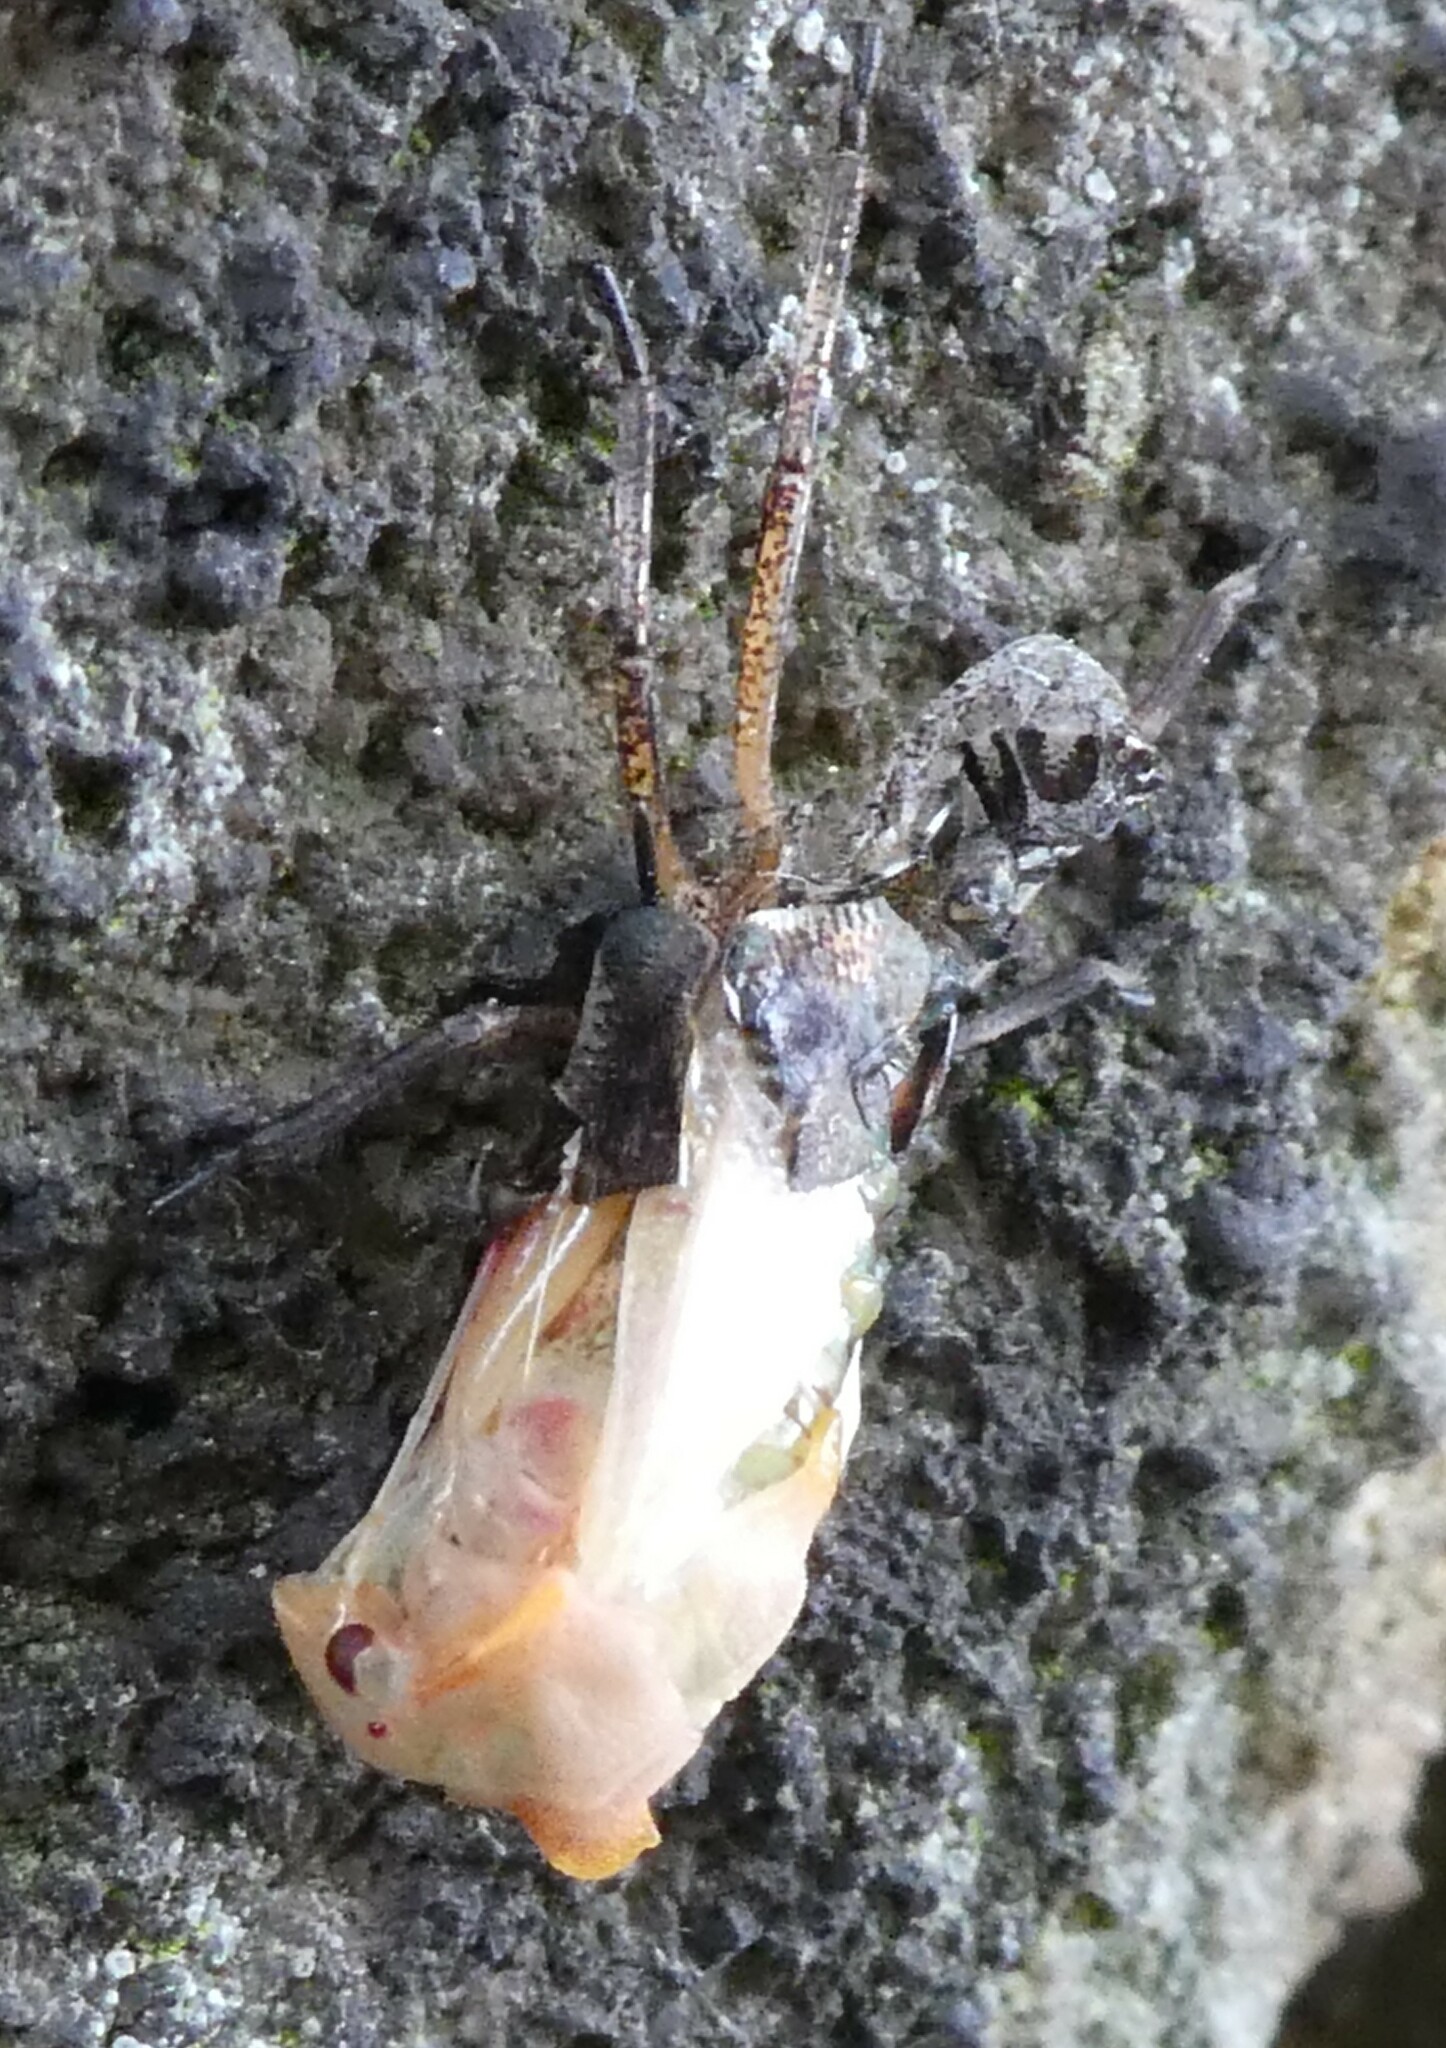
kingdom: Animalia
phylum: Arthropoda
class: Insecta
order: Hemiptera
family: Pentatomidae
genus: Pentatoma
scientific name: Pentatoma rufipes
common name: Forest bug
